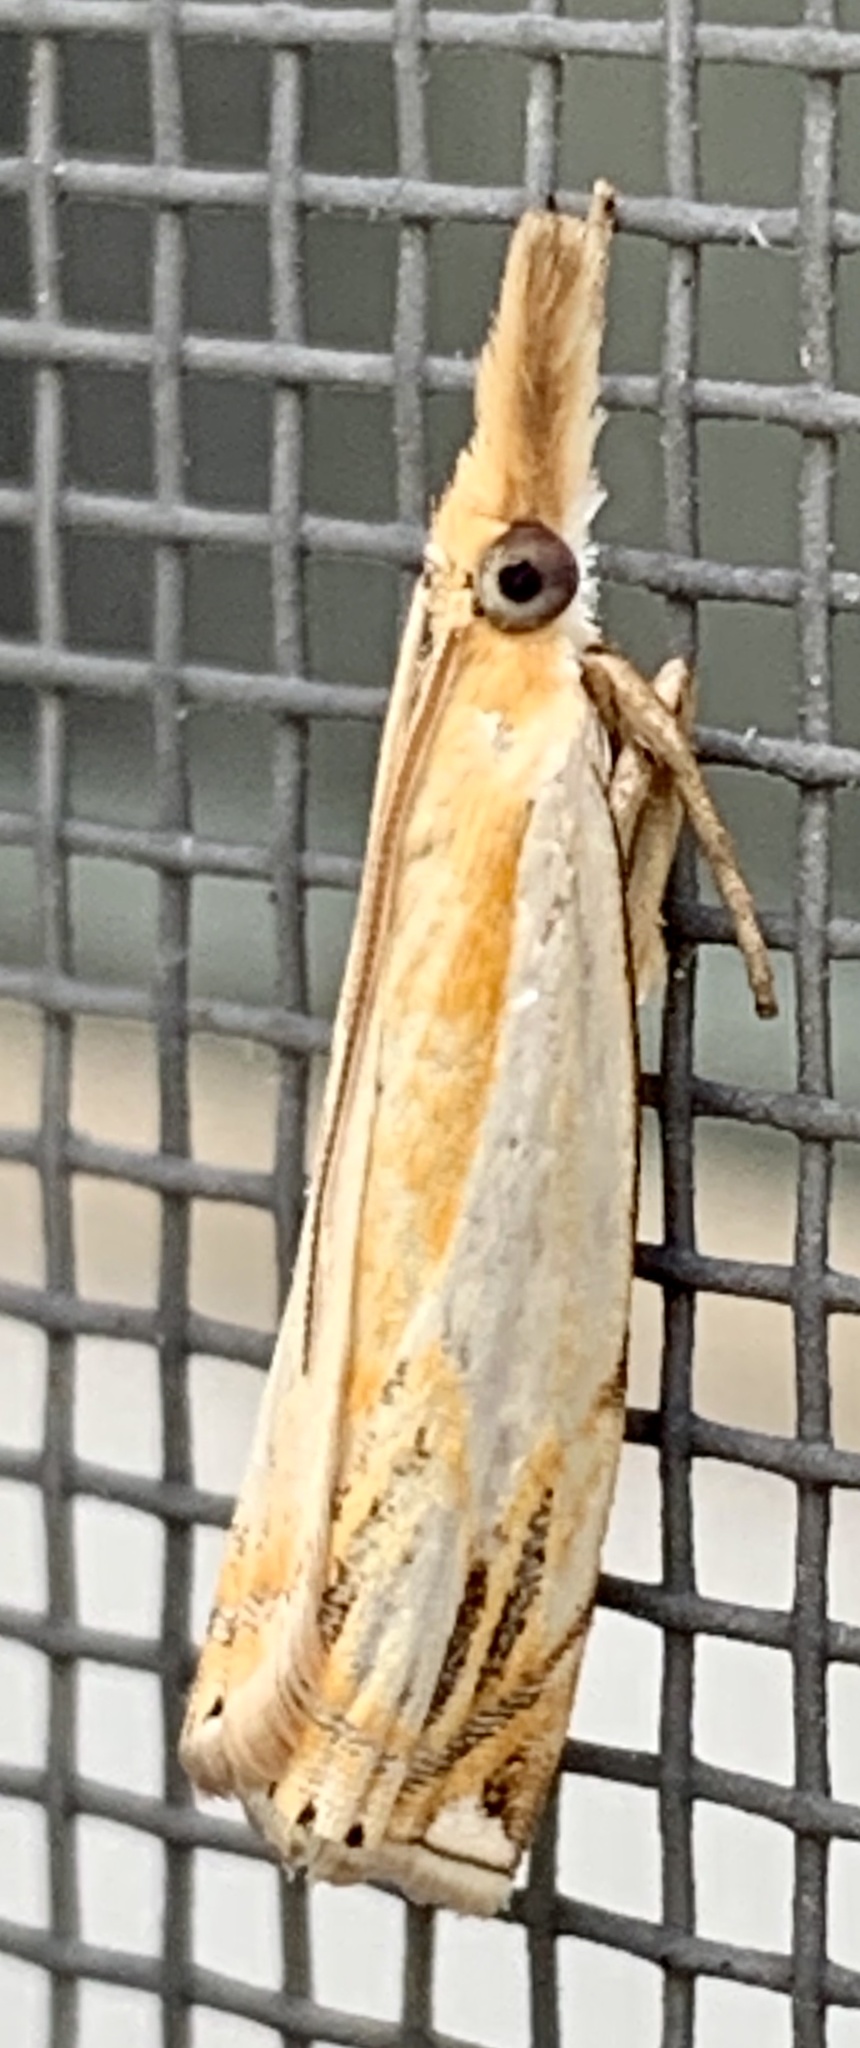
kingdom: Animalia
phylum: Arthropoda
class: Insecta
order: Lepidoptera
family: Crambidae
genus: Crambus
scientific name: Crambus agitatellus
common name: Double-banded grass-veneer
